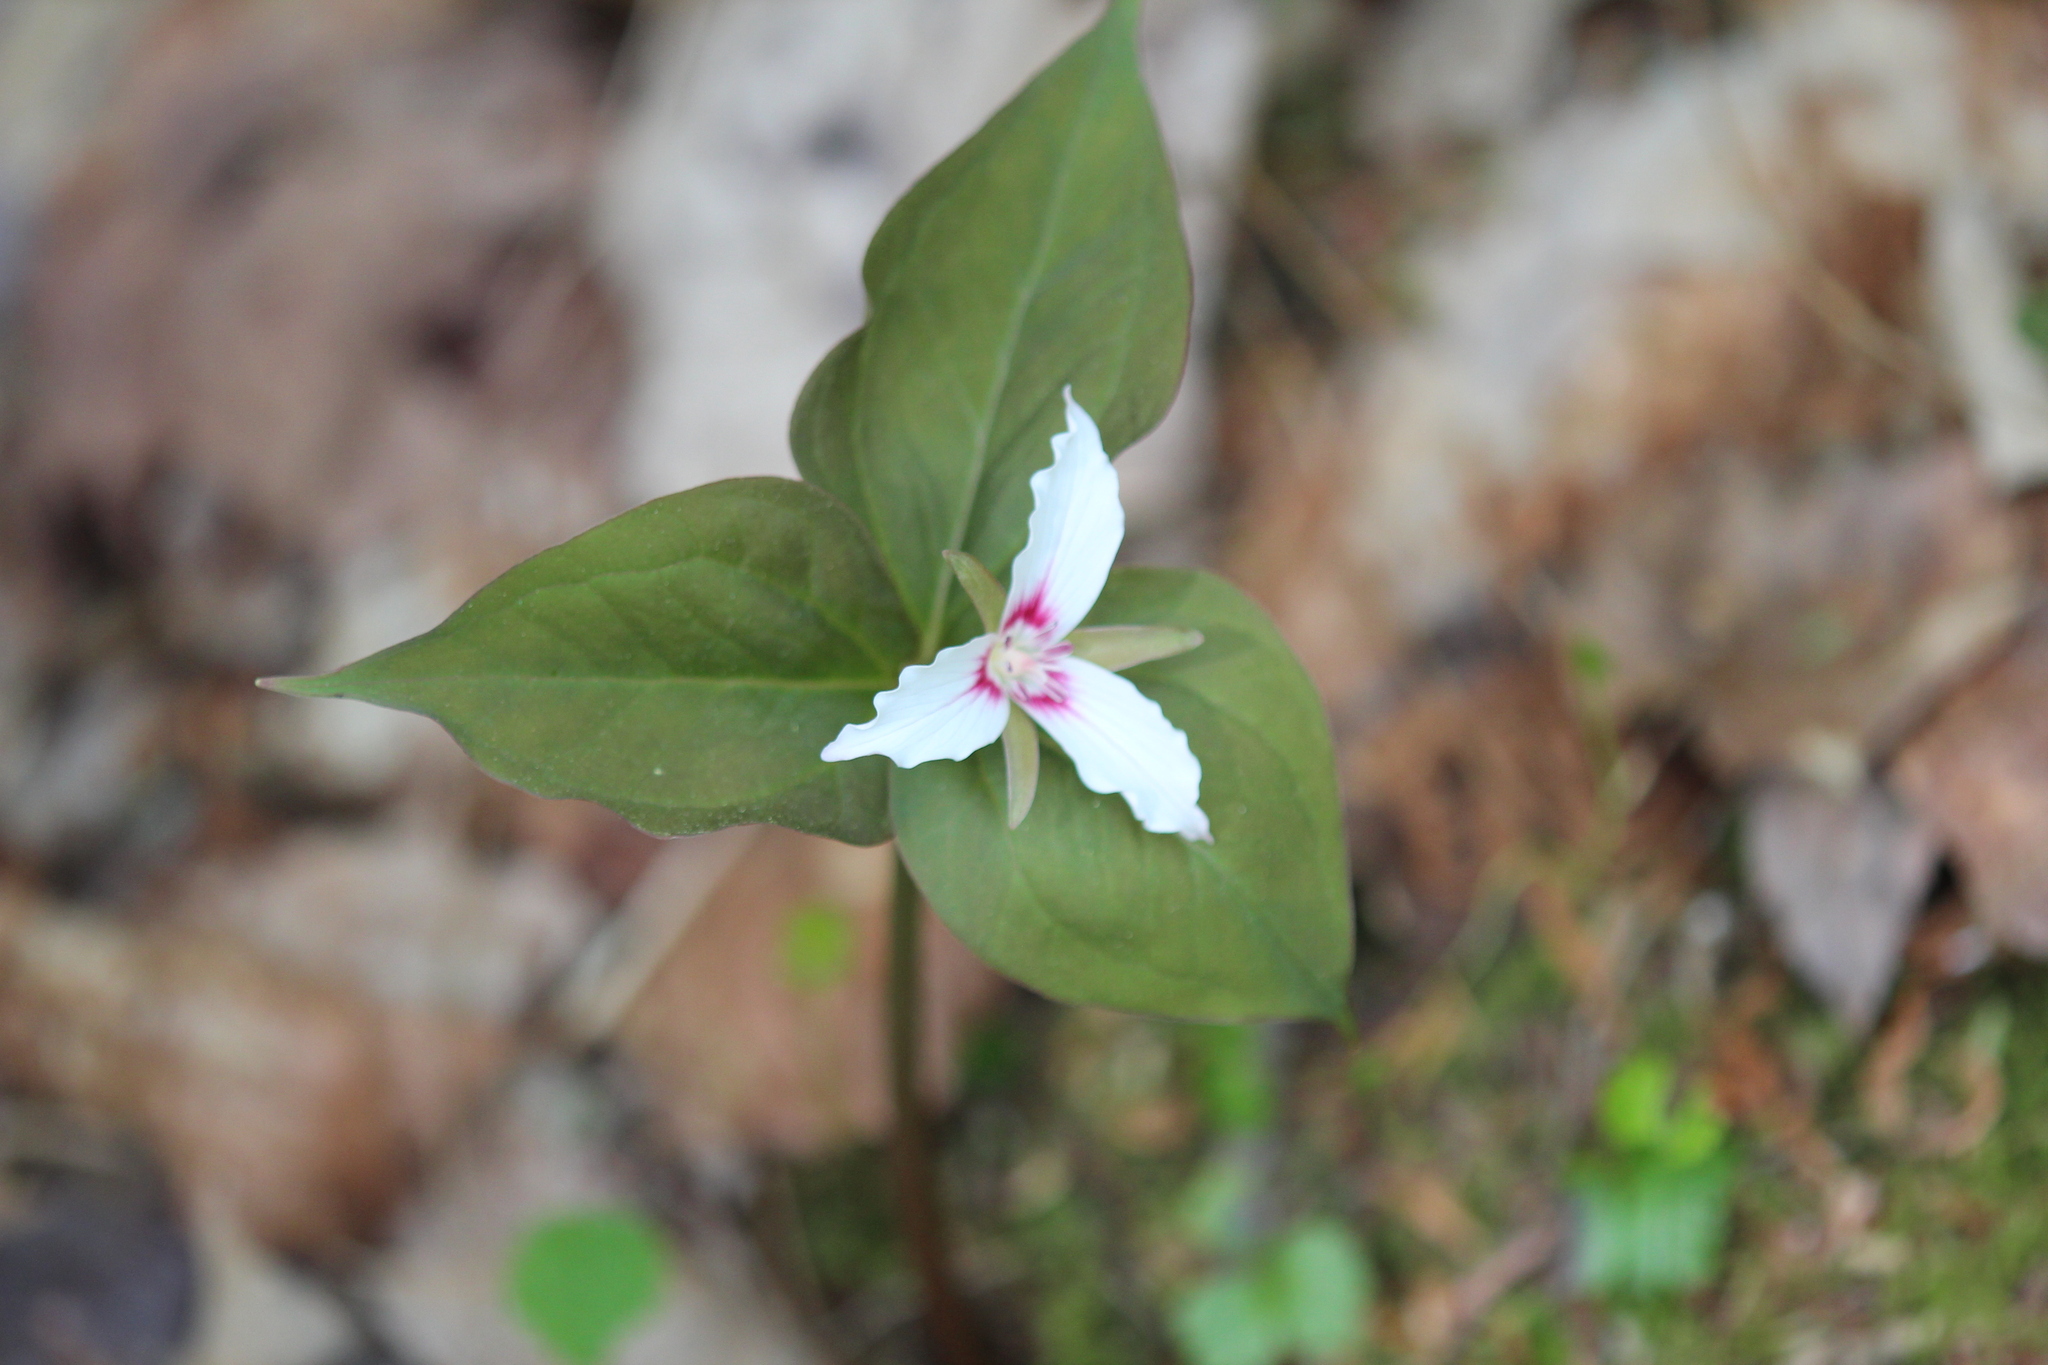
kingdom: Plantae
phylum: Tracheophyta
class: Liliopsida
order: Liliales
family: Melanthiaceae
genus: Trillium
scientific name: Trillium undulatum
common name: Paint trillium
